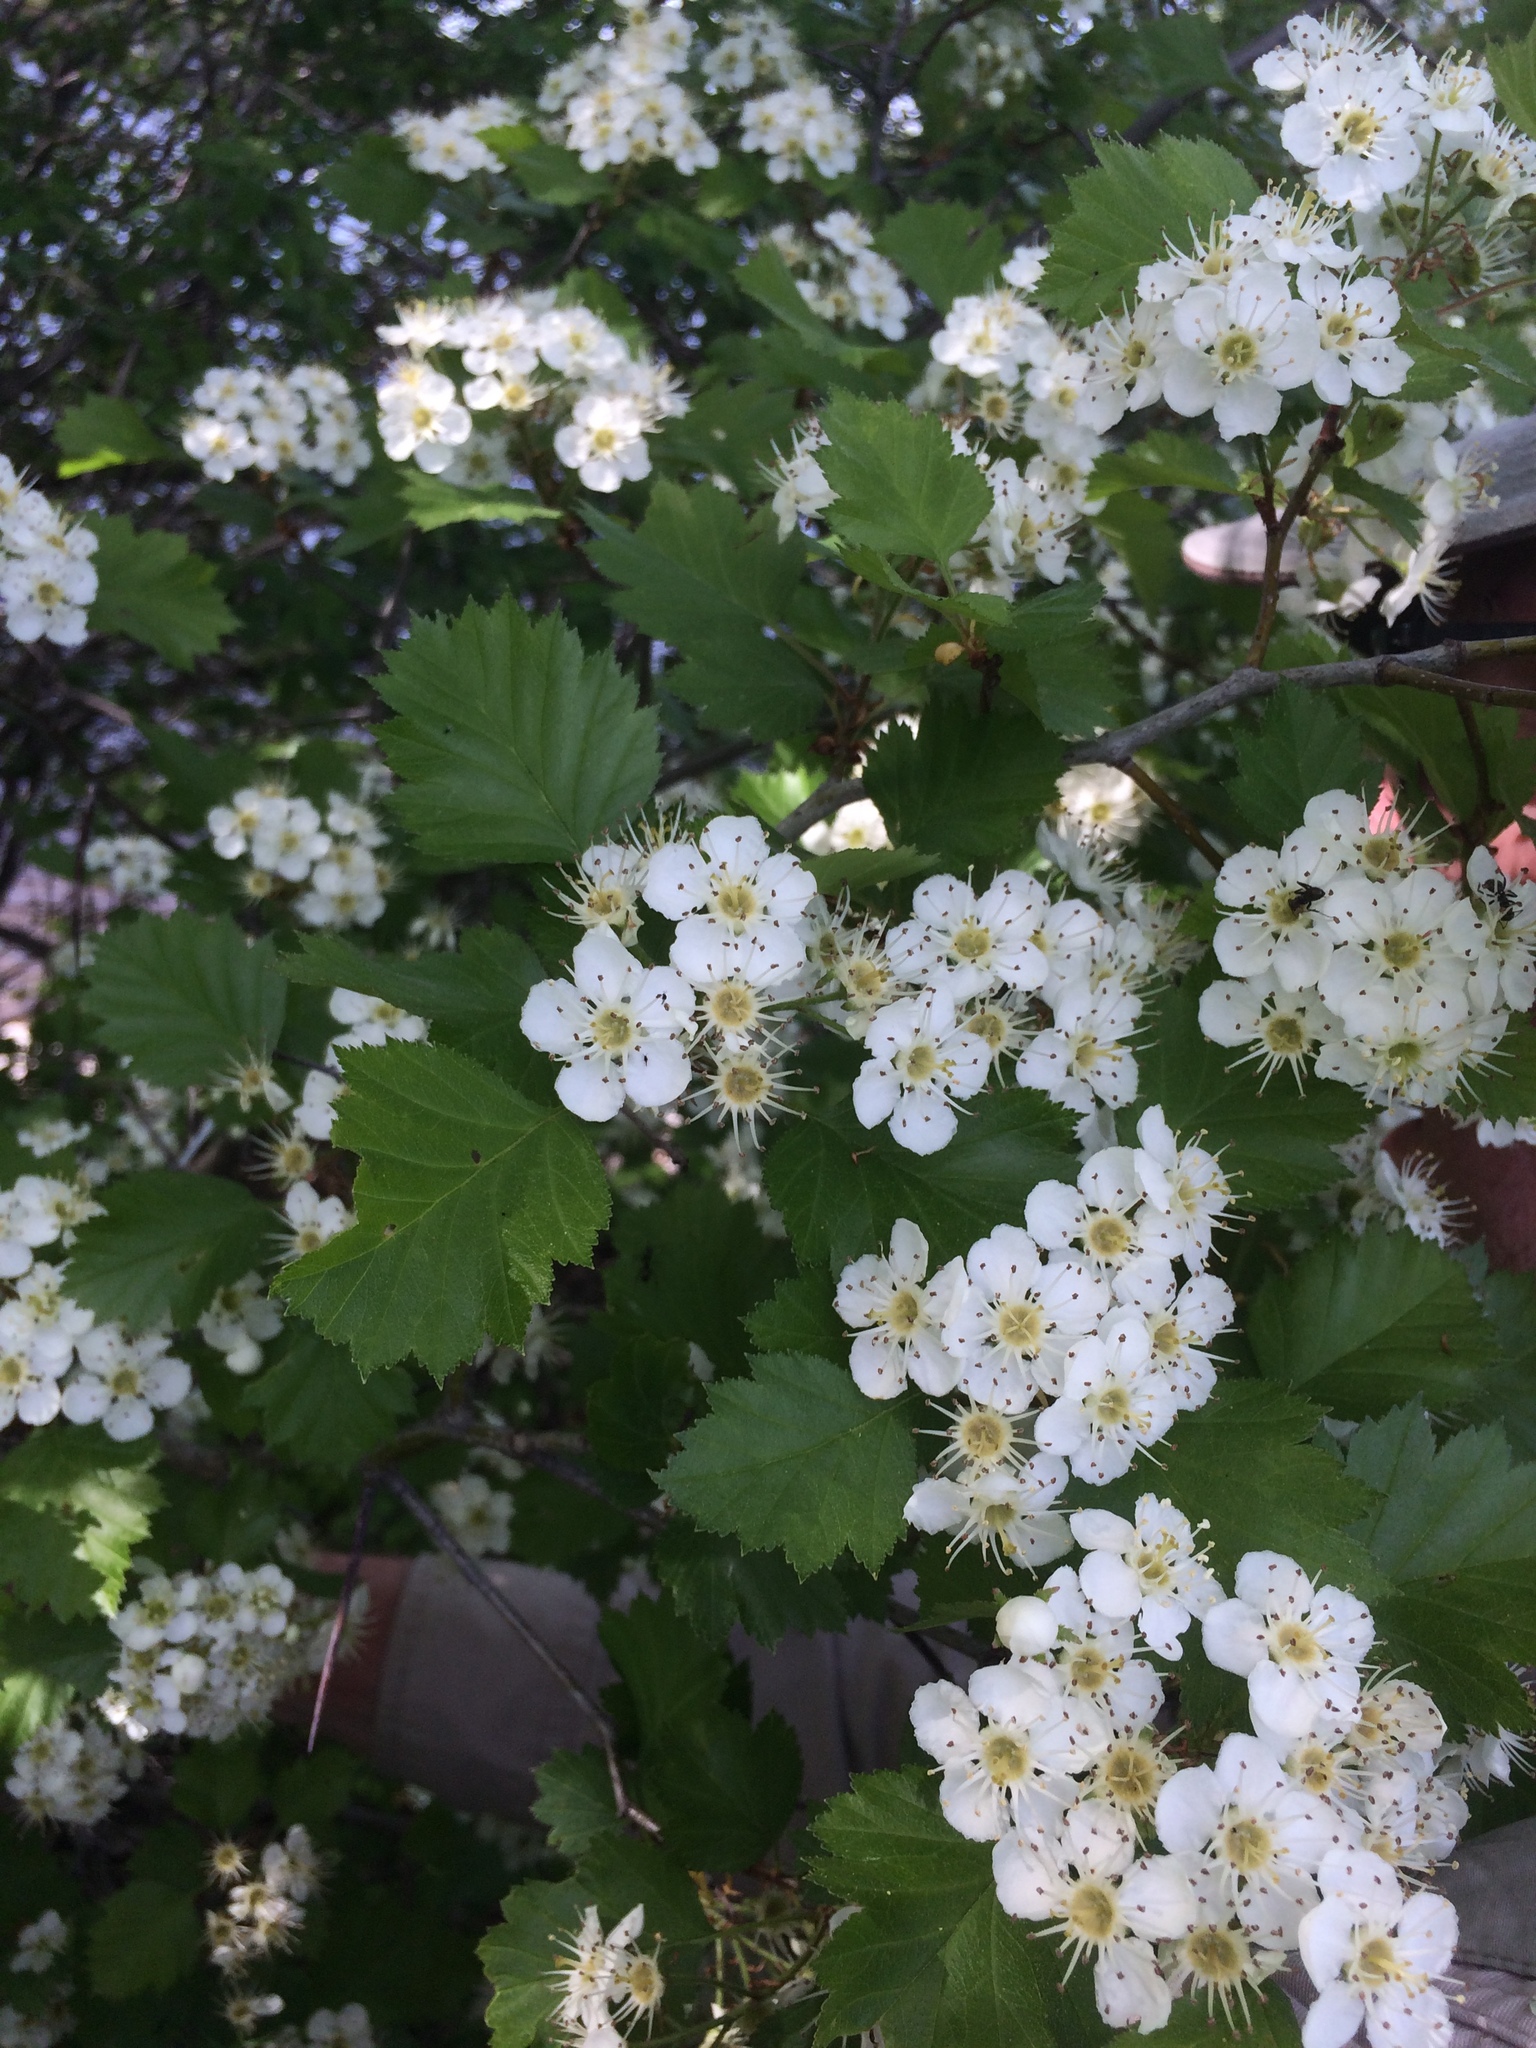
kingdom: Plantae
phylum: Tracheophyta
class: Magnoliopsida
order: Rosales
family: Rosaceae
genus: Crataegus
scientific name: Crataegus irrasa
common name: Unshorn hawthorn
